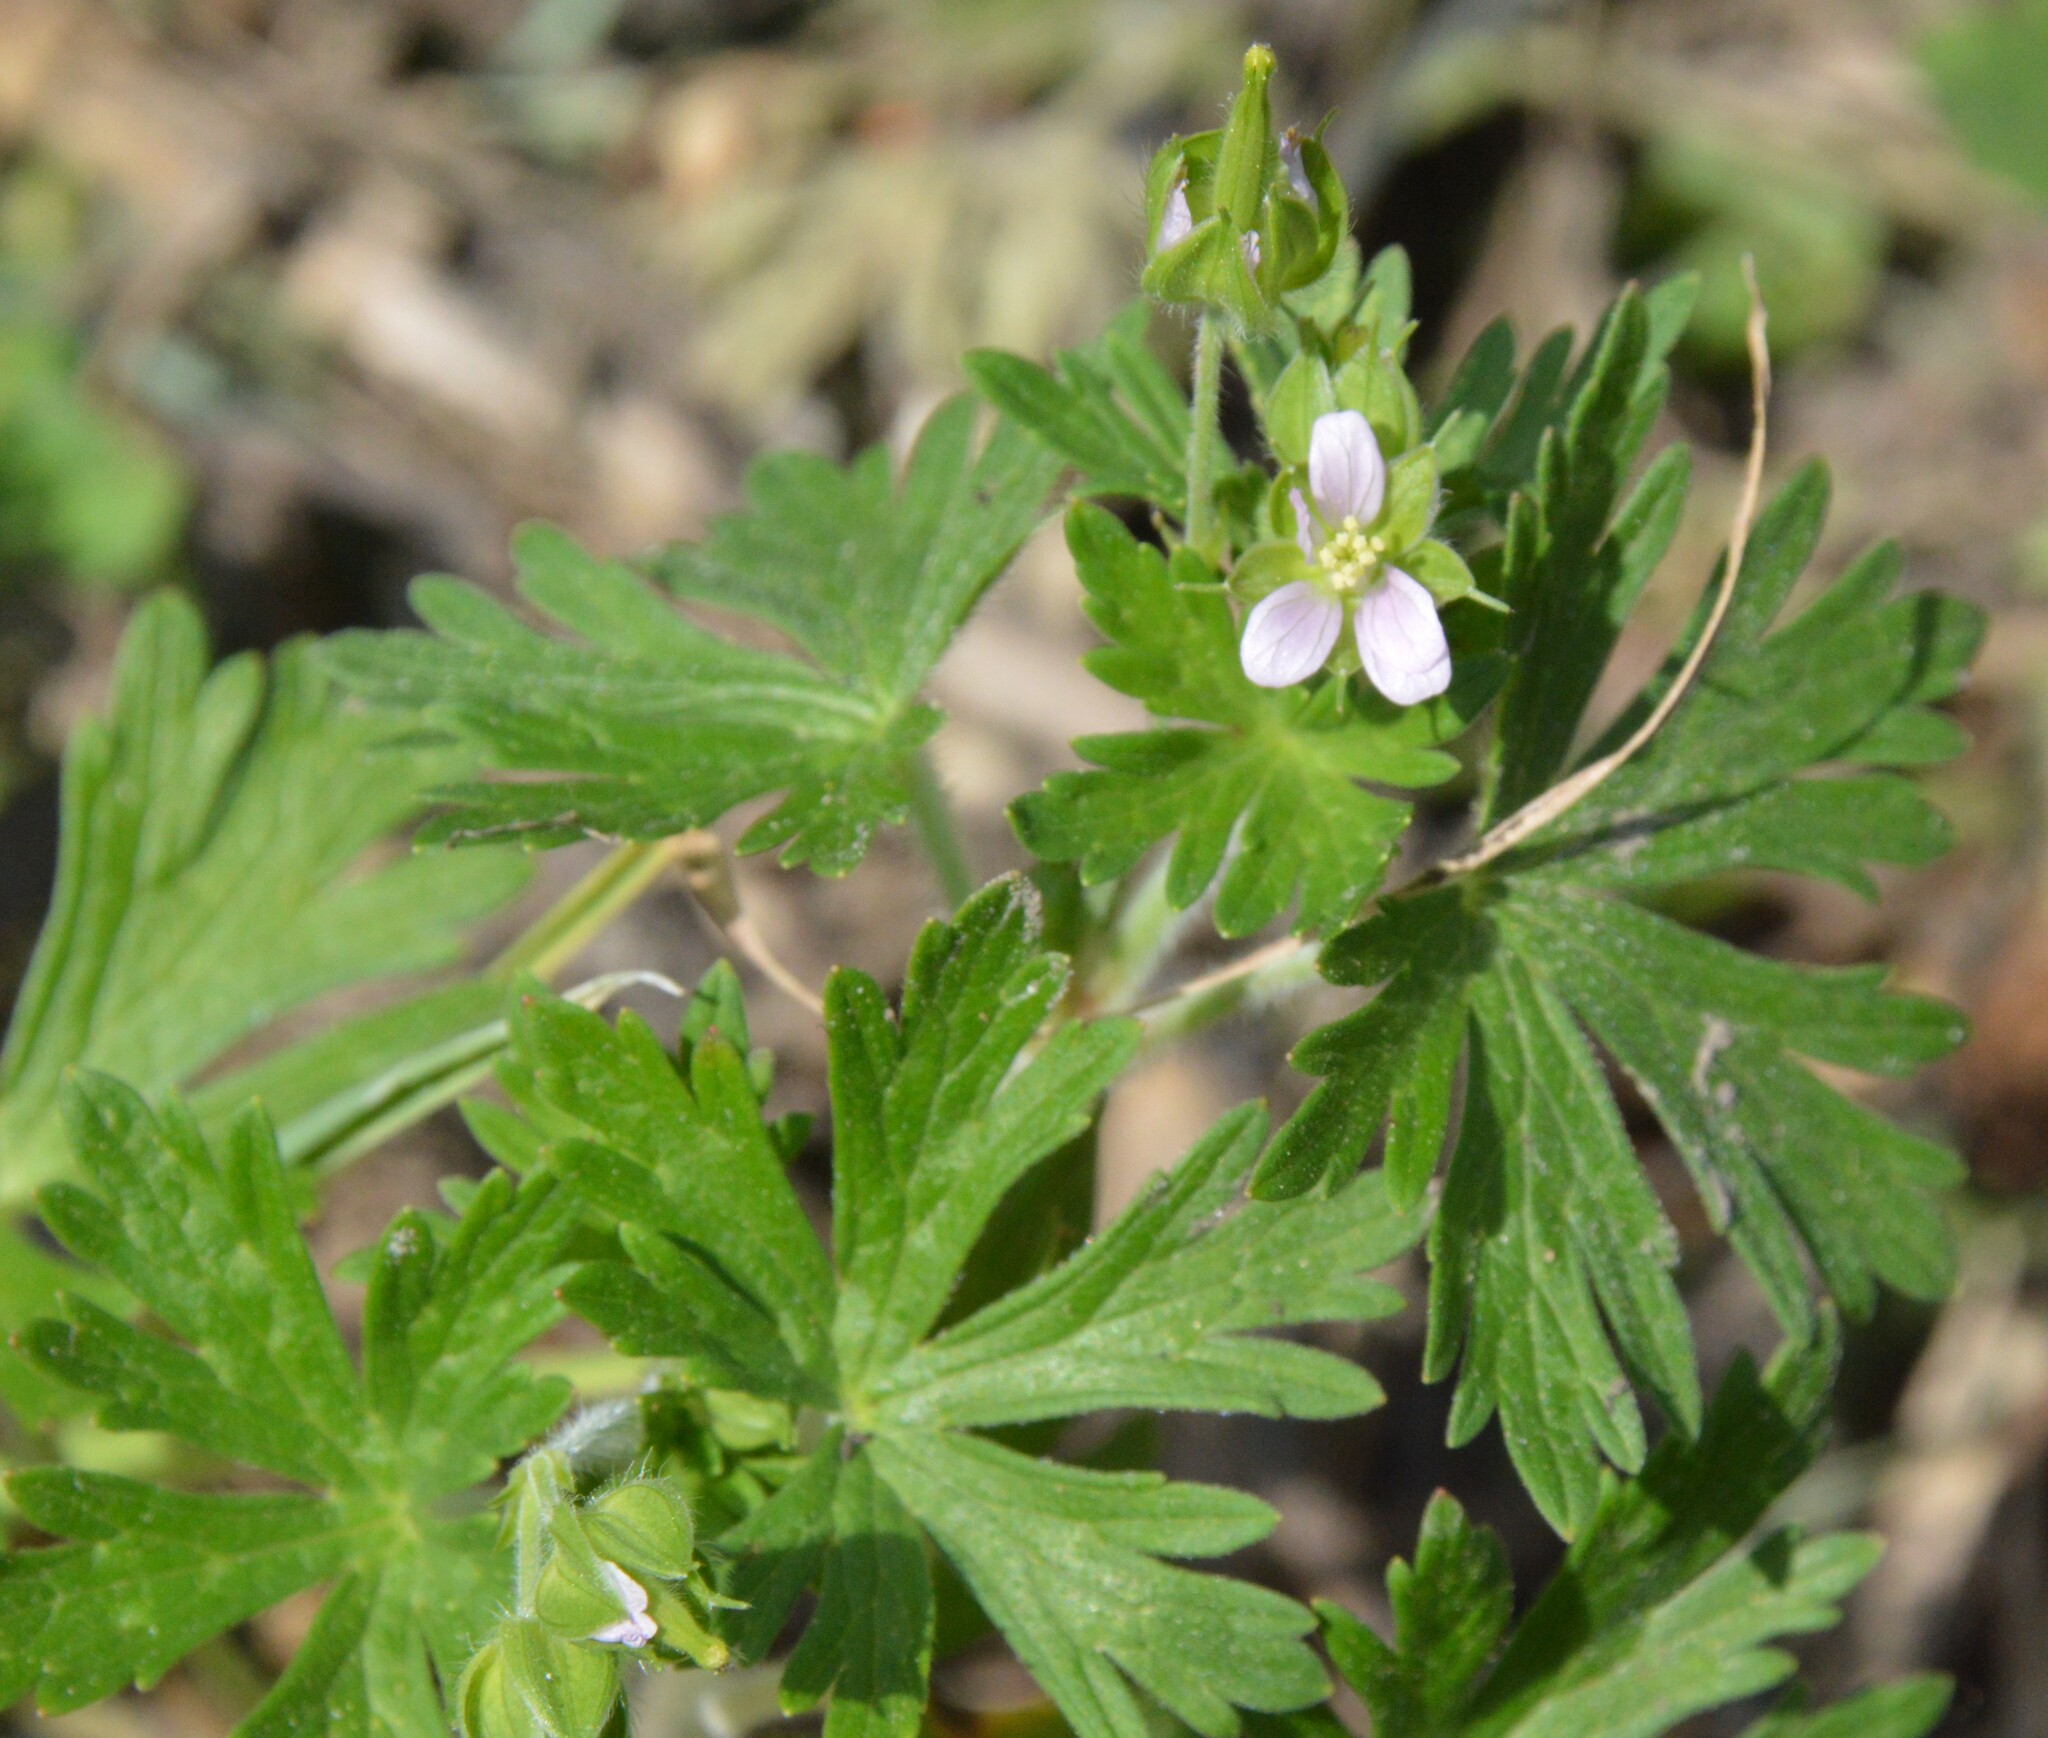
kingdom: Plantae
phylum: Tracheophyta
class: Magnoliopsida
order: Geraniales
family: Geraniaceae
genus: Geranium
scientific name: Geranium carolinianum
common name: Carolina crane's-bill
